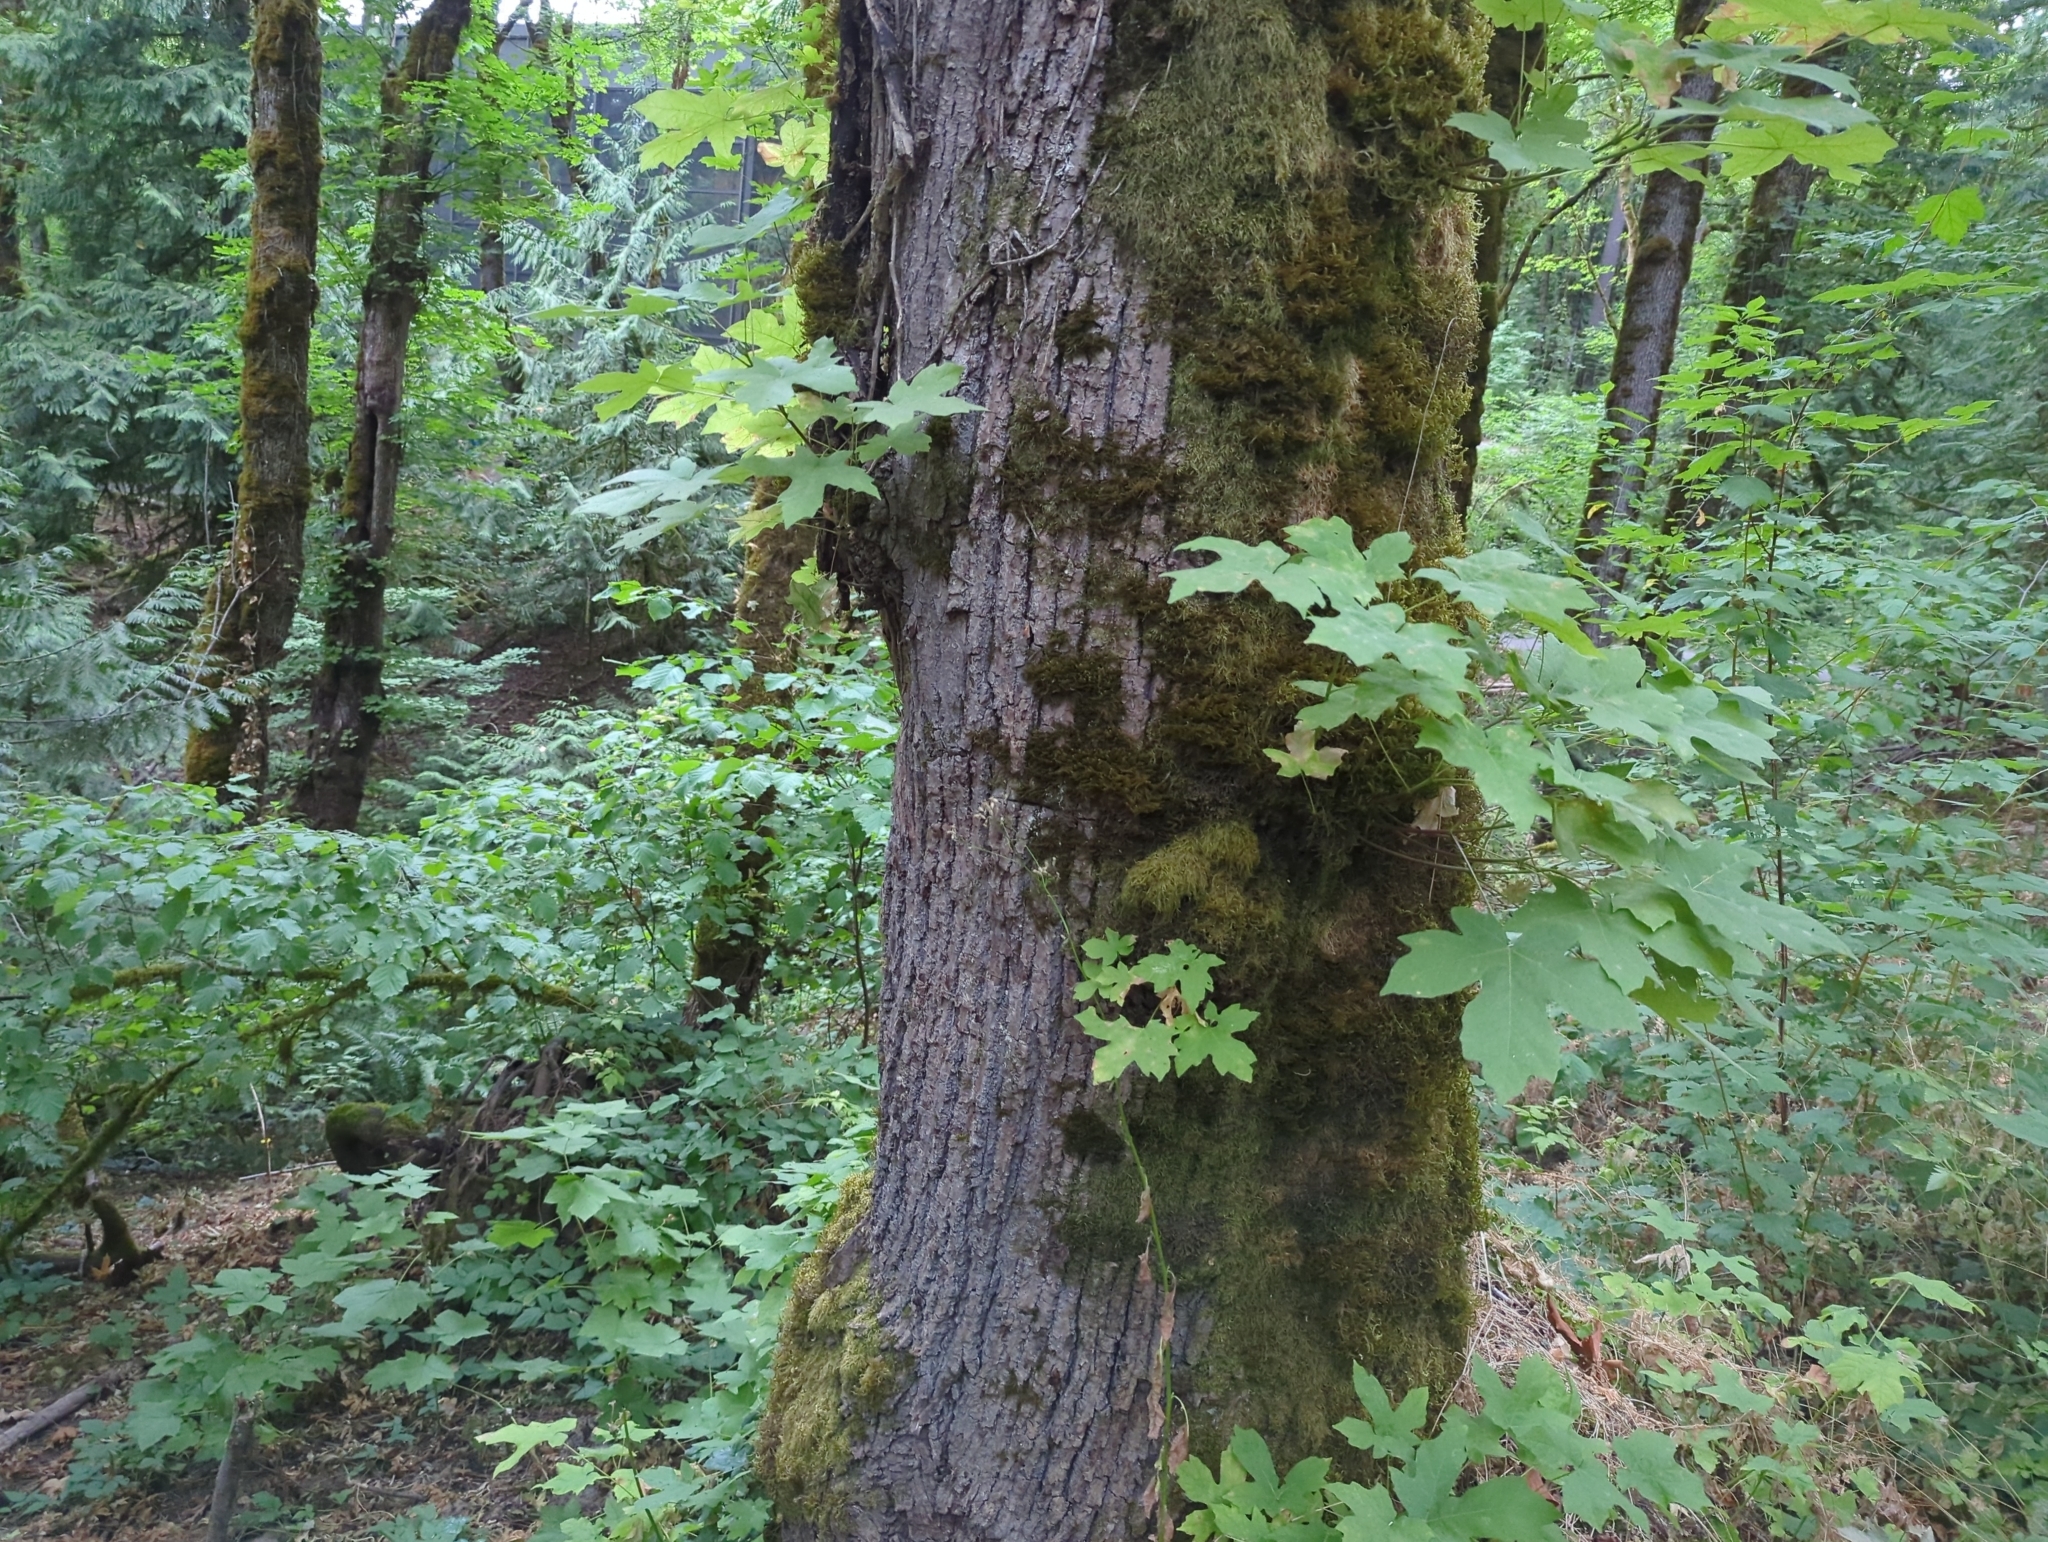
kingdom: Plantae
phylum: Tracheophyta
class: Magnoliopsida
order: Sapindales
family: Sapindaceae
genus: Acer
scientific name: Acer macrophyllum
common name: Oregon maple
